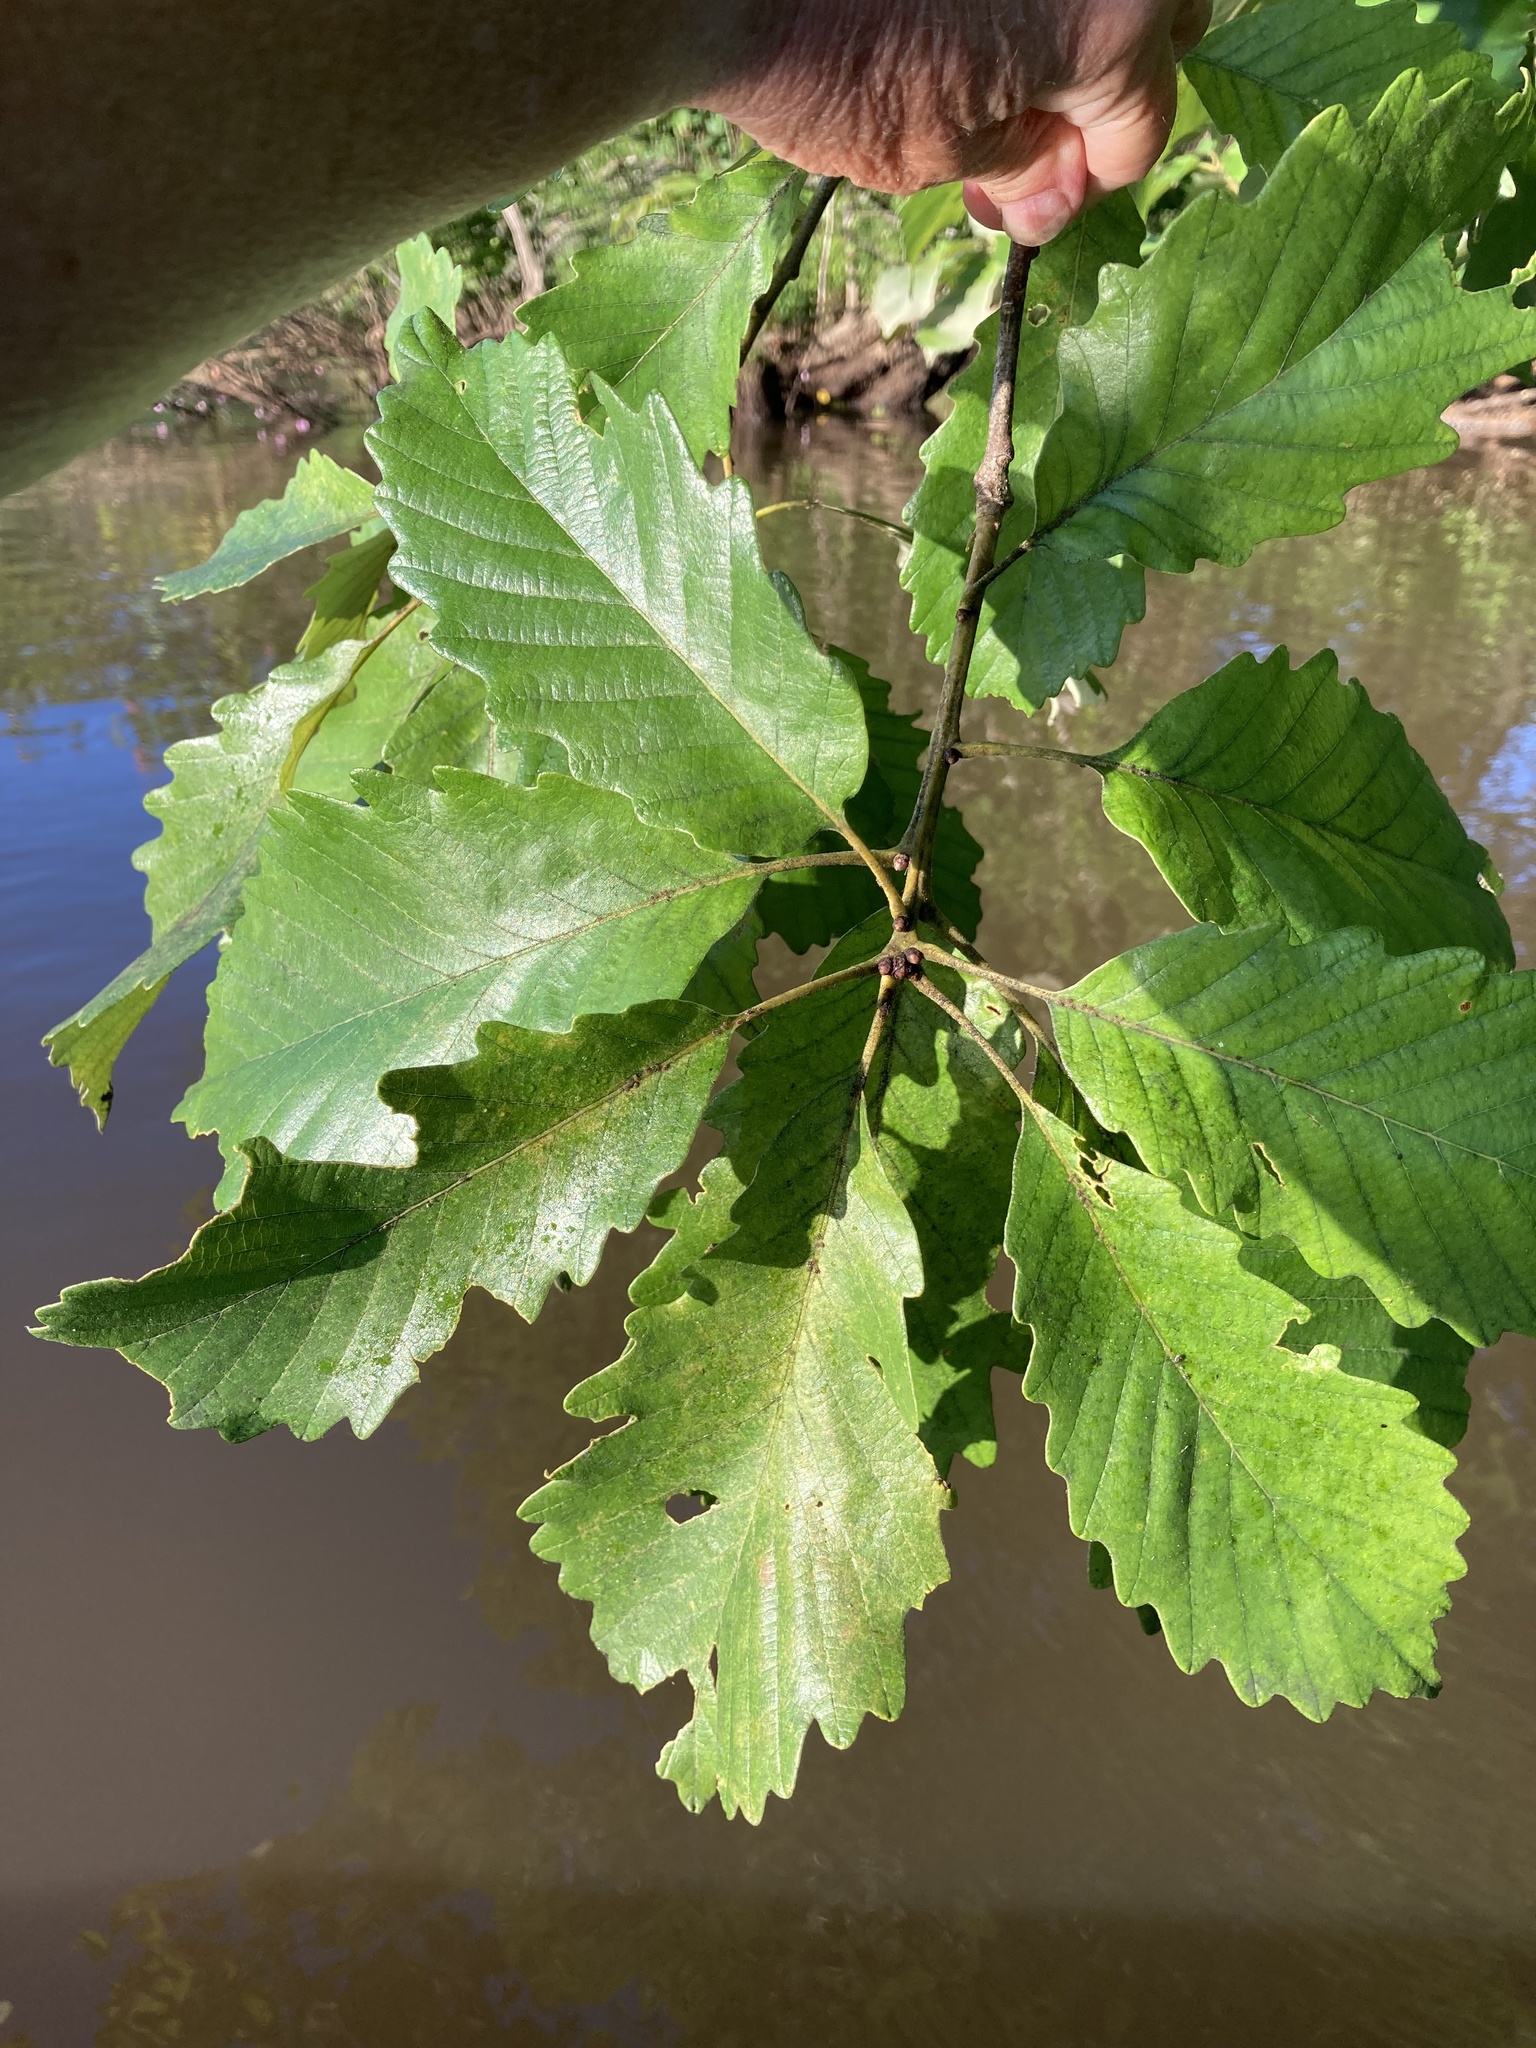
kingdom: Plantae
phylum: Tracheophyta
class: Magnoliopsida
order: Fagales
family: Fagaceae
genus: Quercus
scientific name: Quercus michauxii
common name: Swamp chestnut oak
